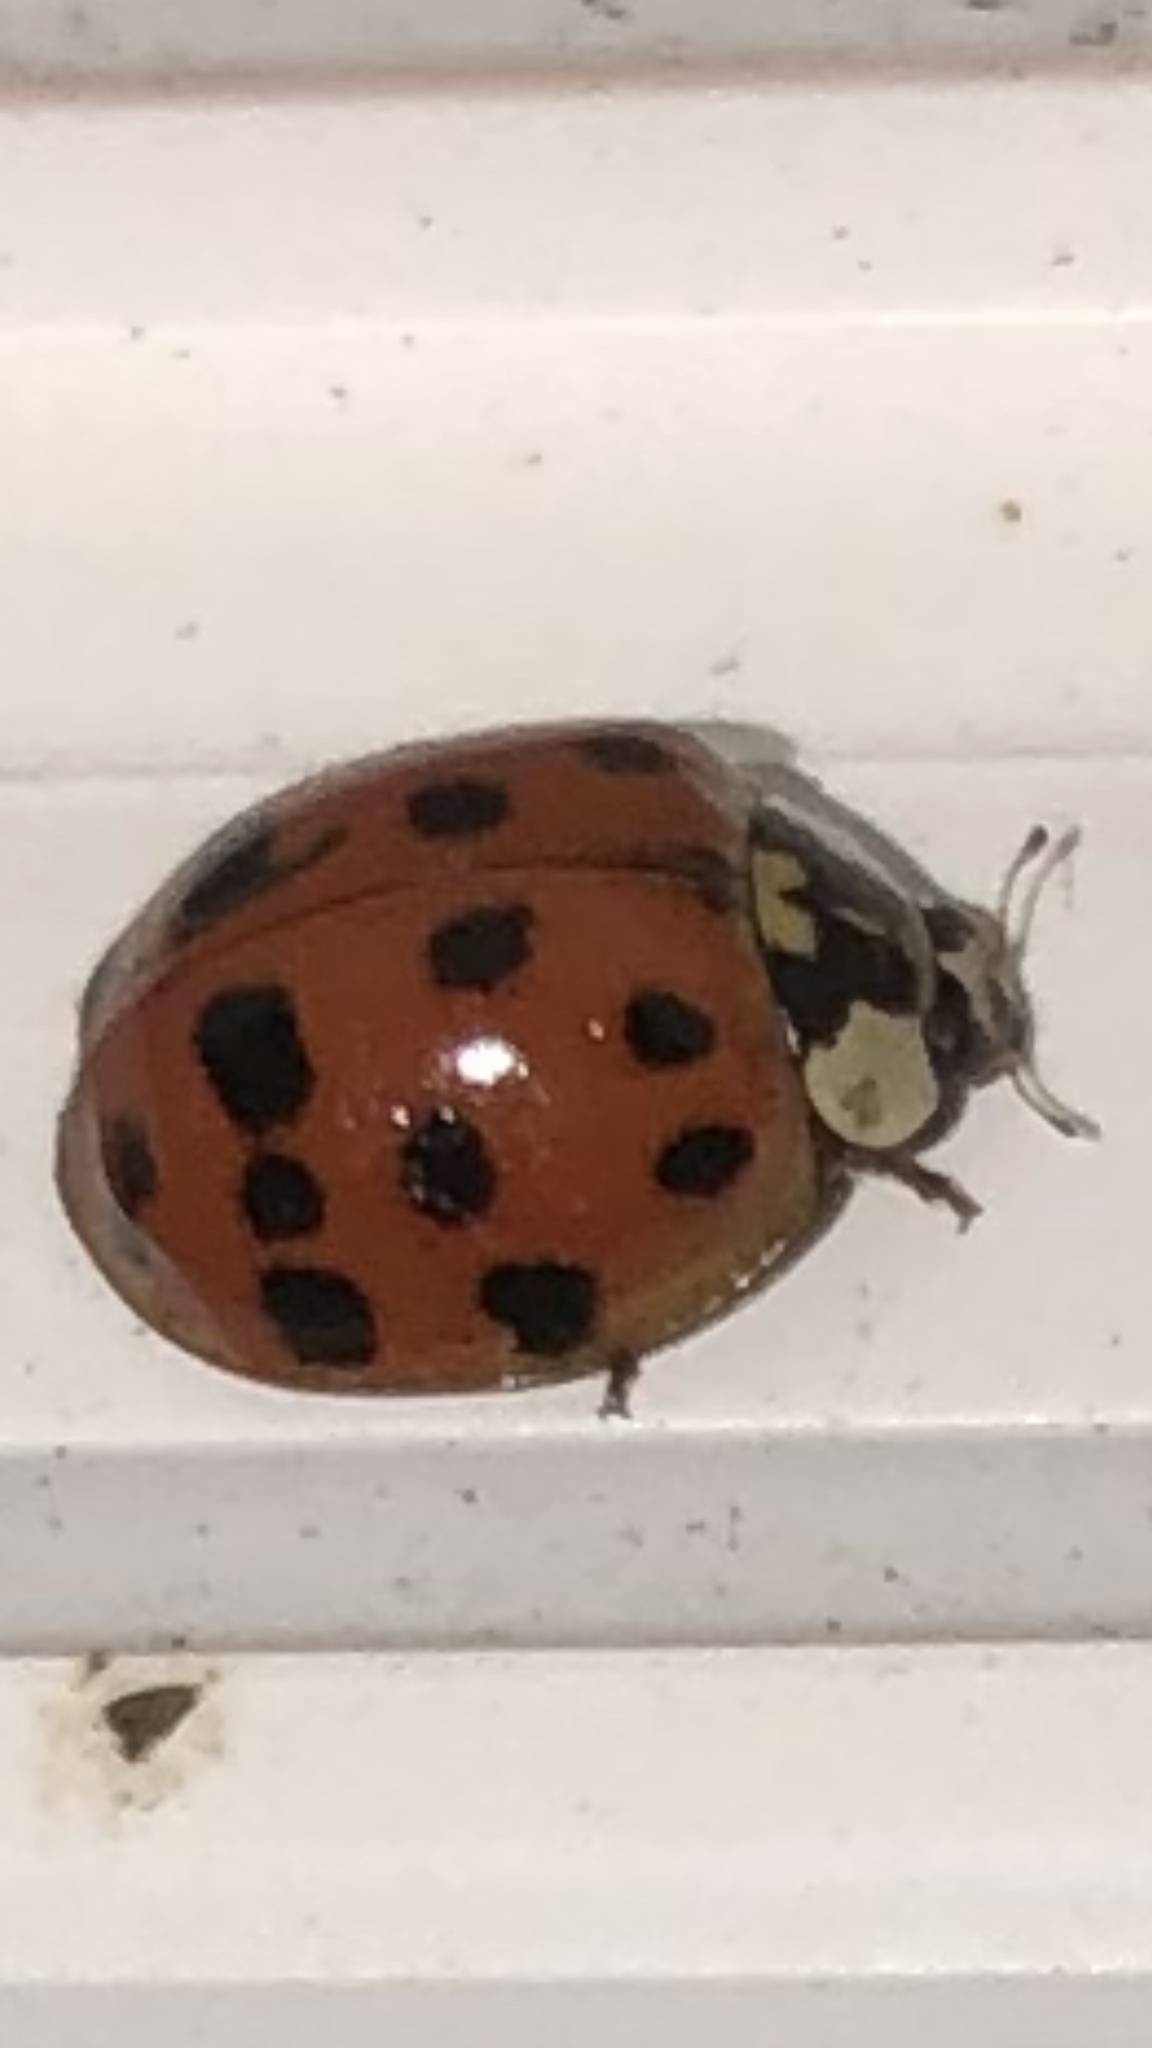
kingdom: Animalia
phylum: Arthropoda
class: Insecta
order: Coleoptera
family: Coccinellidae
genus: Harmonia
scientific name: Harmonia axyridis
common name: Harlequin ladybird
